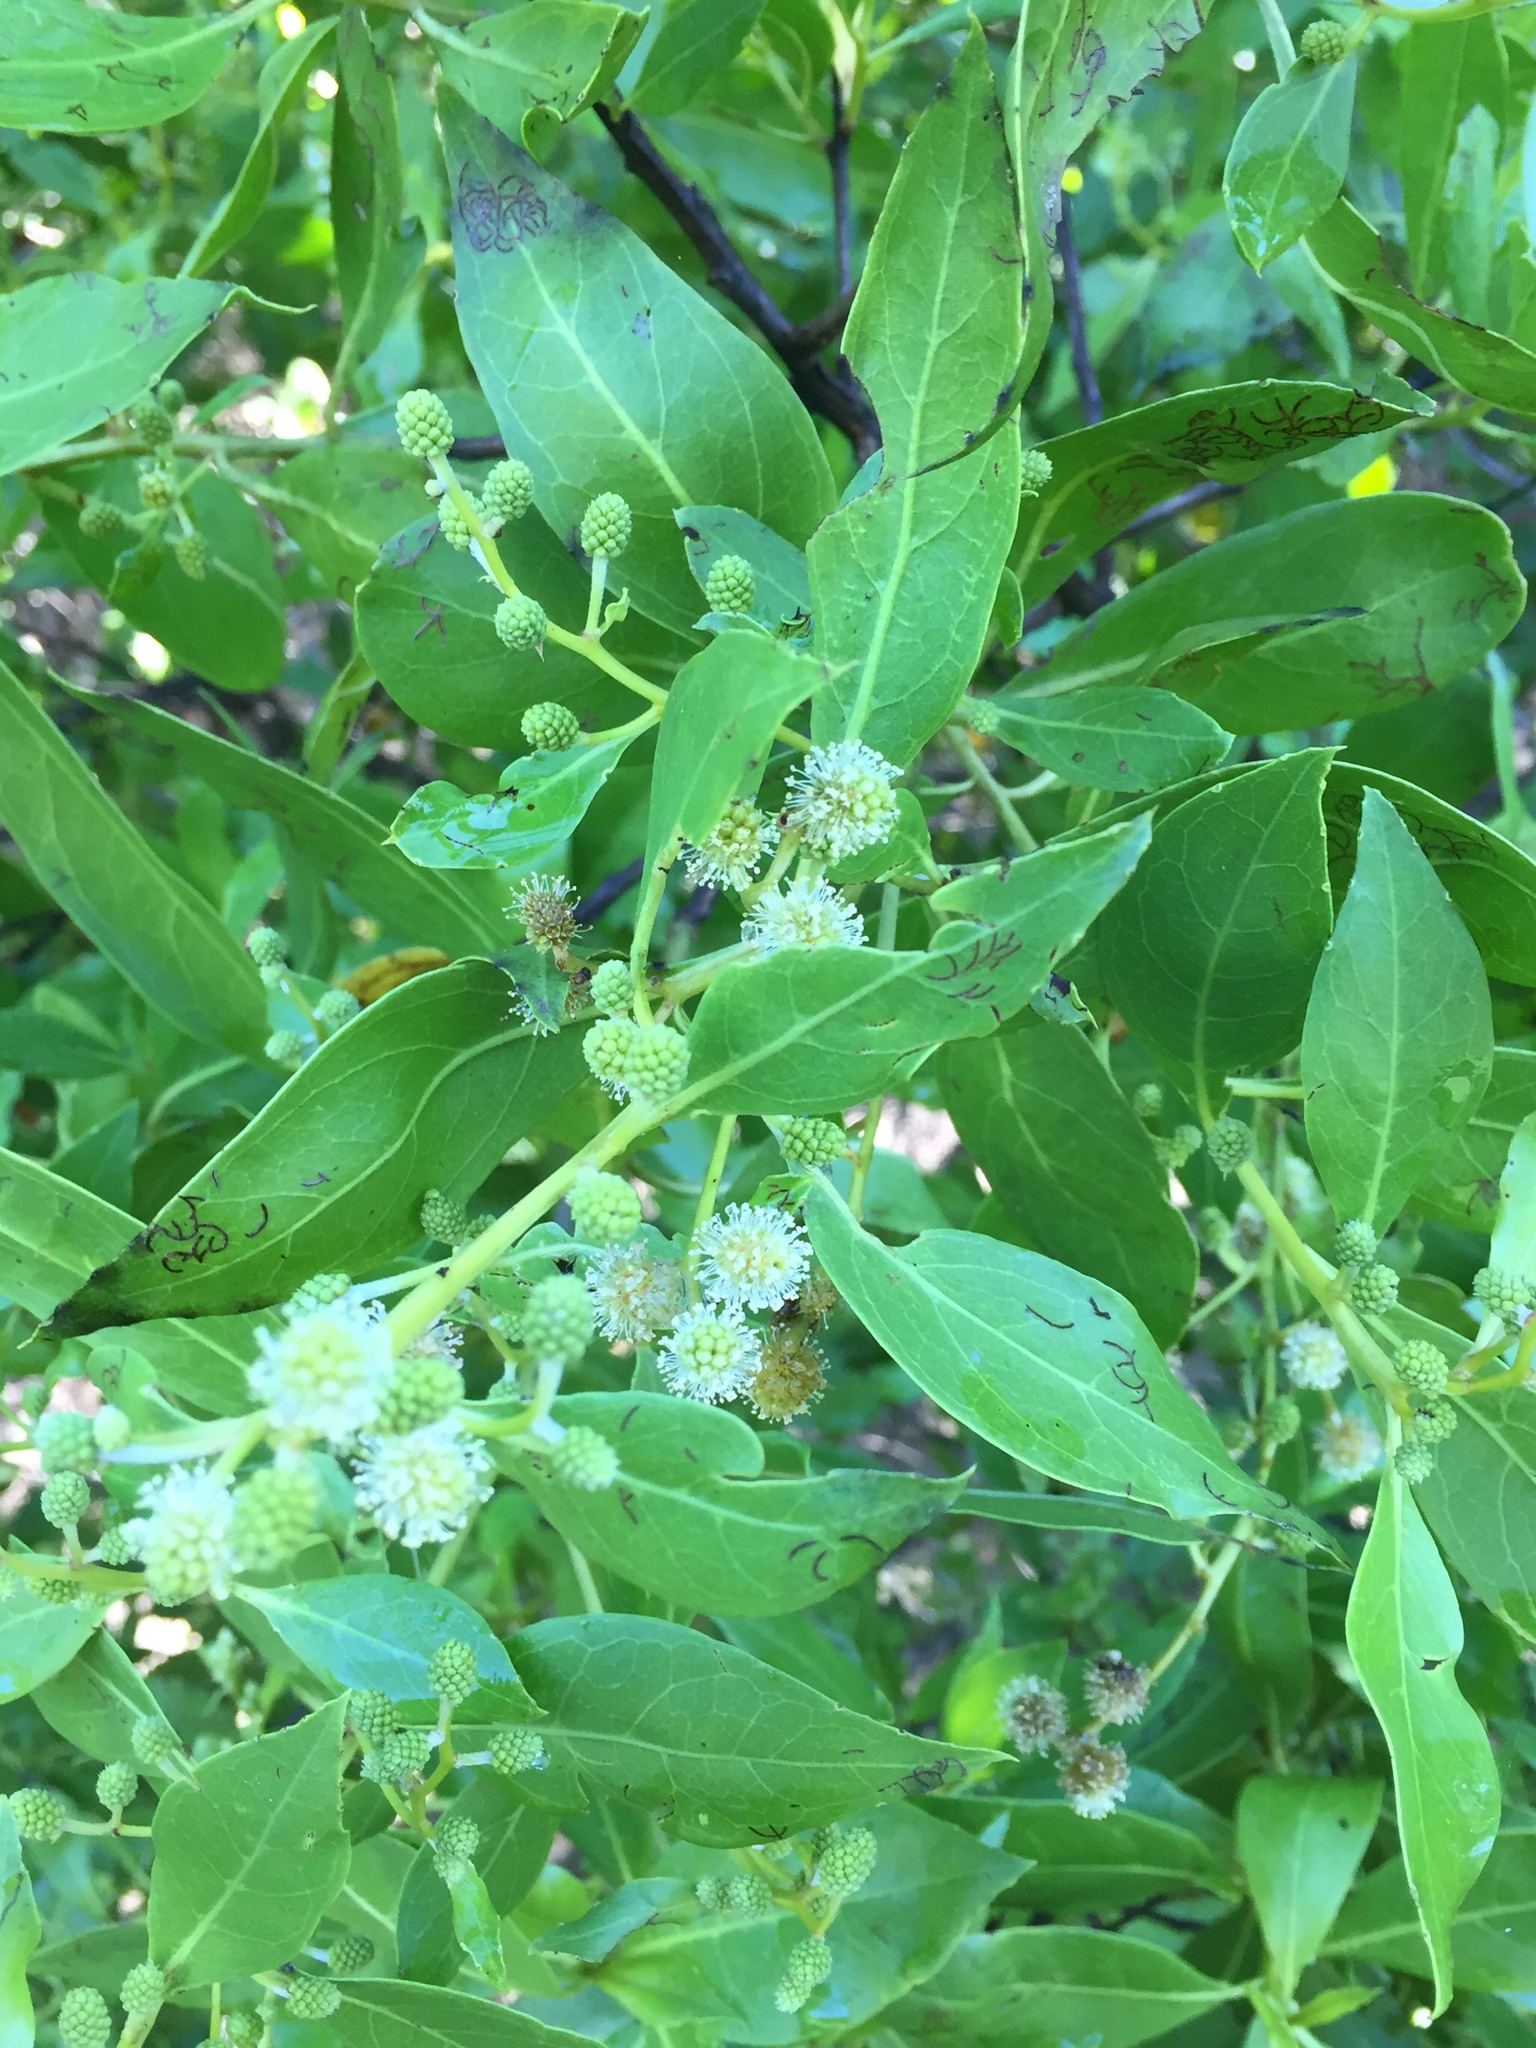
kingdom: Plantae
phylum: Tracheophyta
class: Magnoliopsida
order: Myrtales
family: Combretaceae
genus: Conocarpus
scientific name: Conocarpus erectus
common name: Button mangrove
